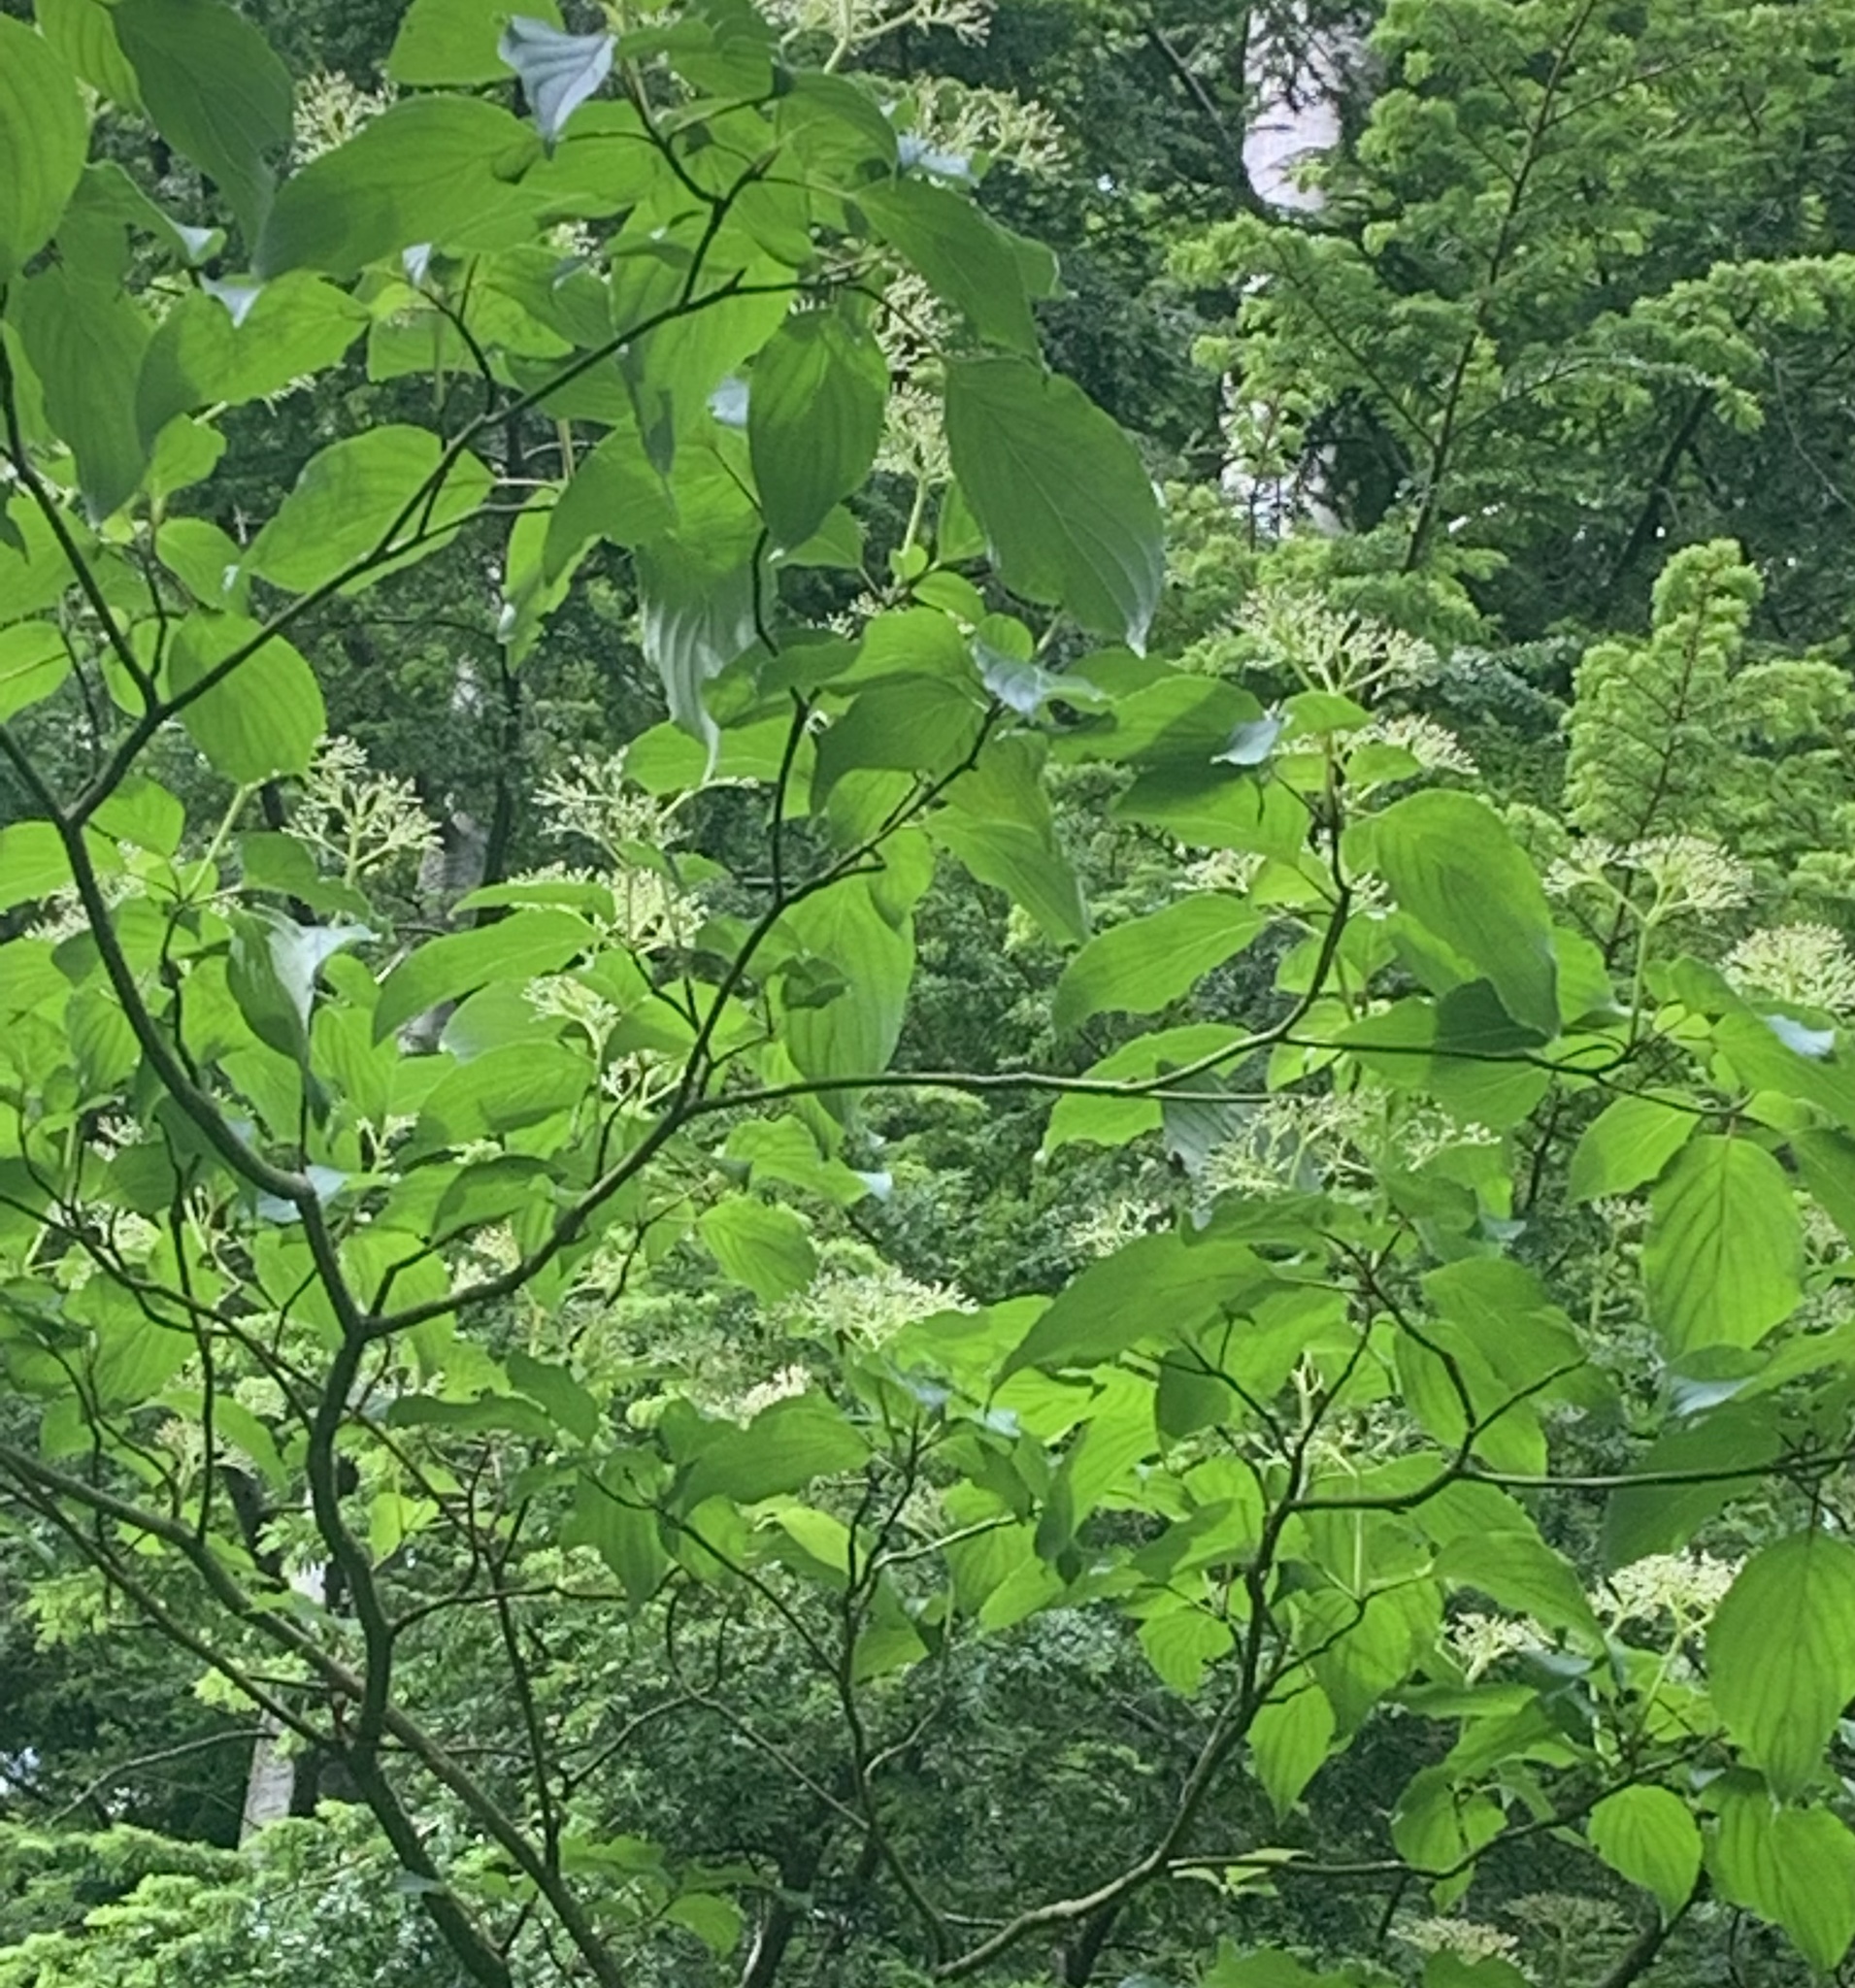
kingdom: Plantae
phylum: Tracheophyta
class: Magnoliopsida
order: Cornales
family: Cornaceae
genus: Cornus
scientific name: Cornus alternifolia
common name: Pagoda dogwood
